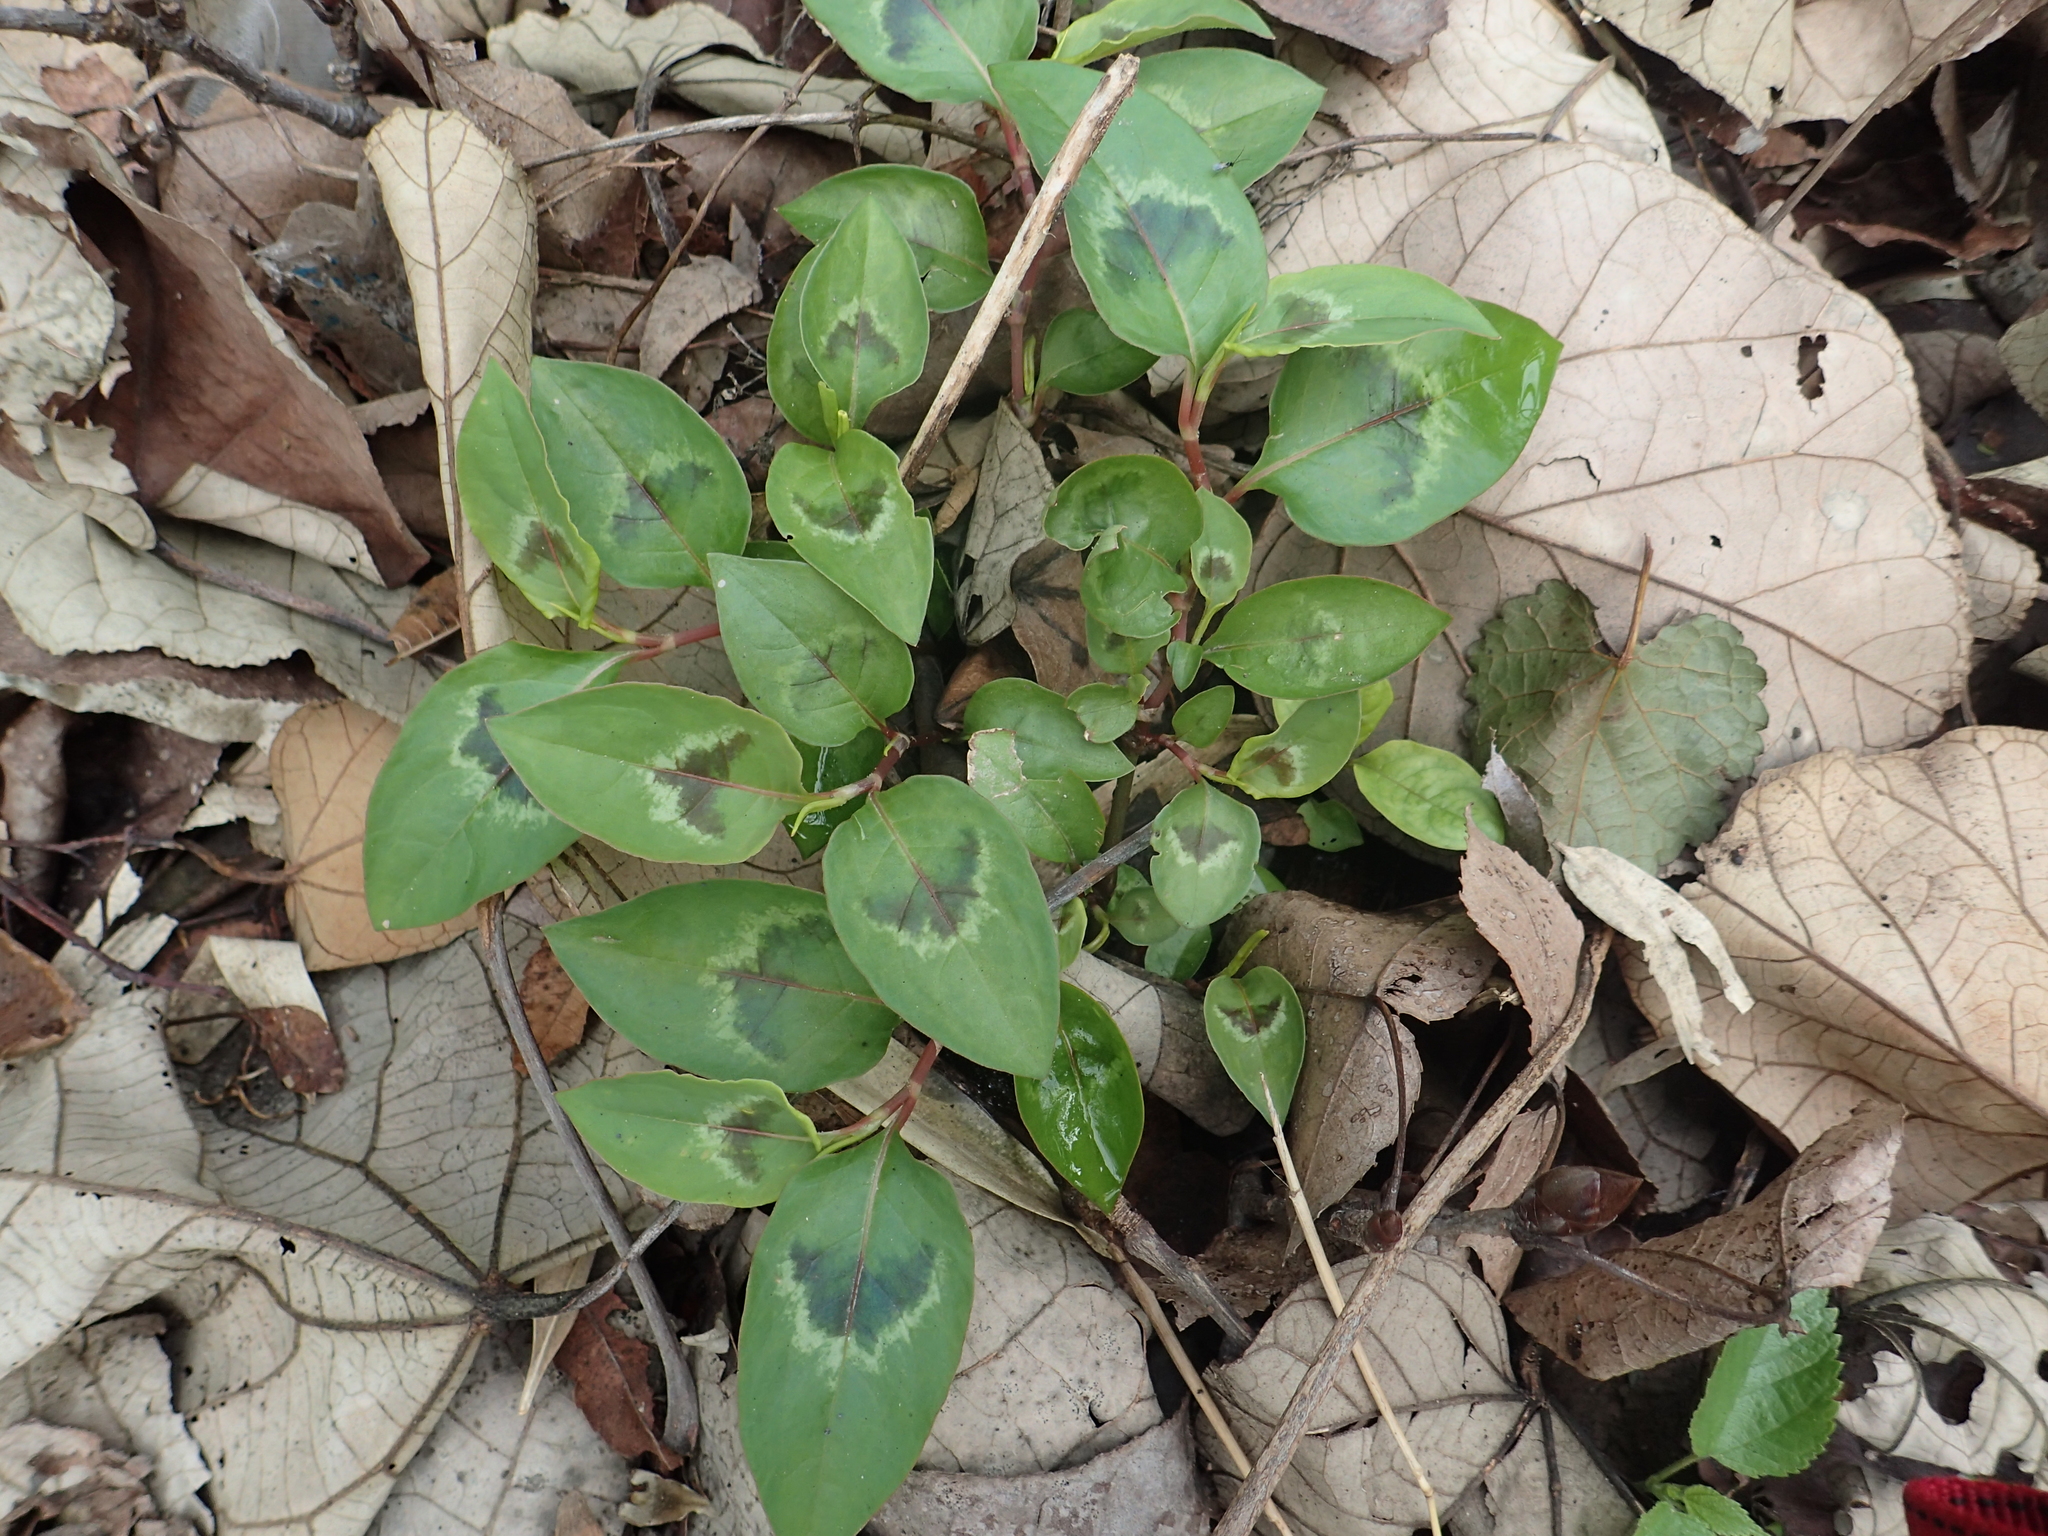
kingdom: Plantae
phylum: Tracheophyta
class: Magnoliopsida
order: Caryophyllales
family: Polygonaceae
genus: Persicaria
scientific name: Persicaria chinensis
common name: Chinese knotweed
